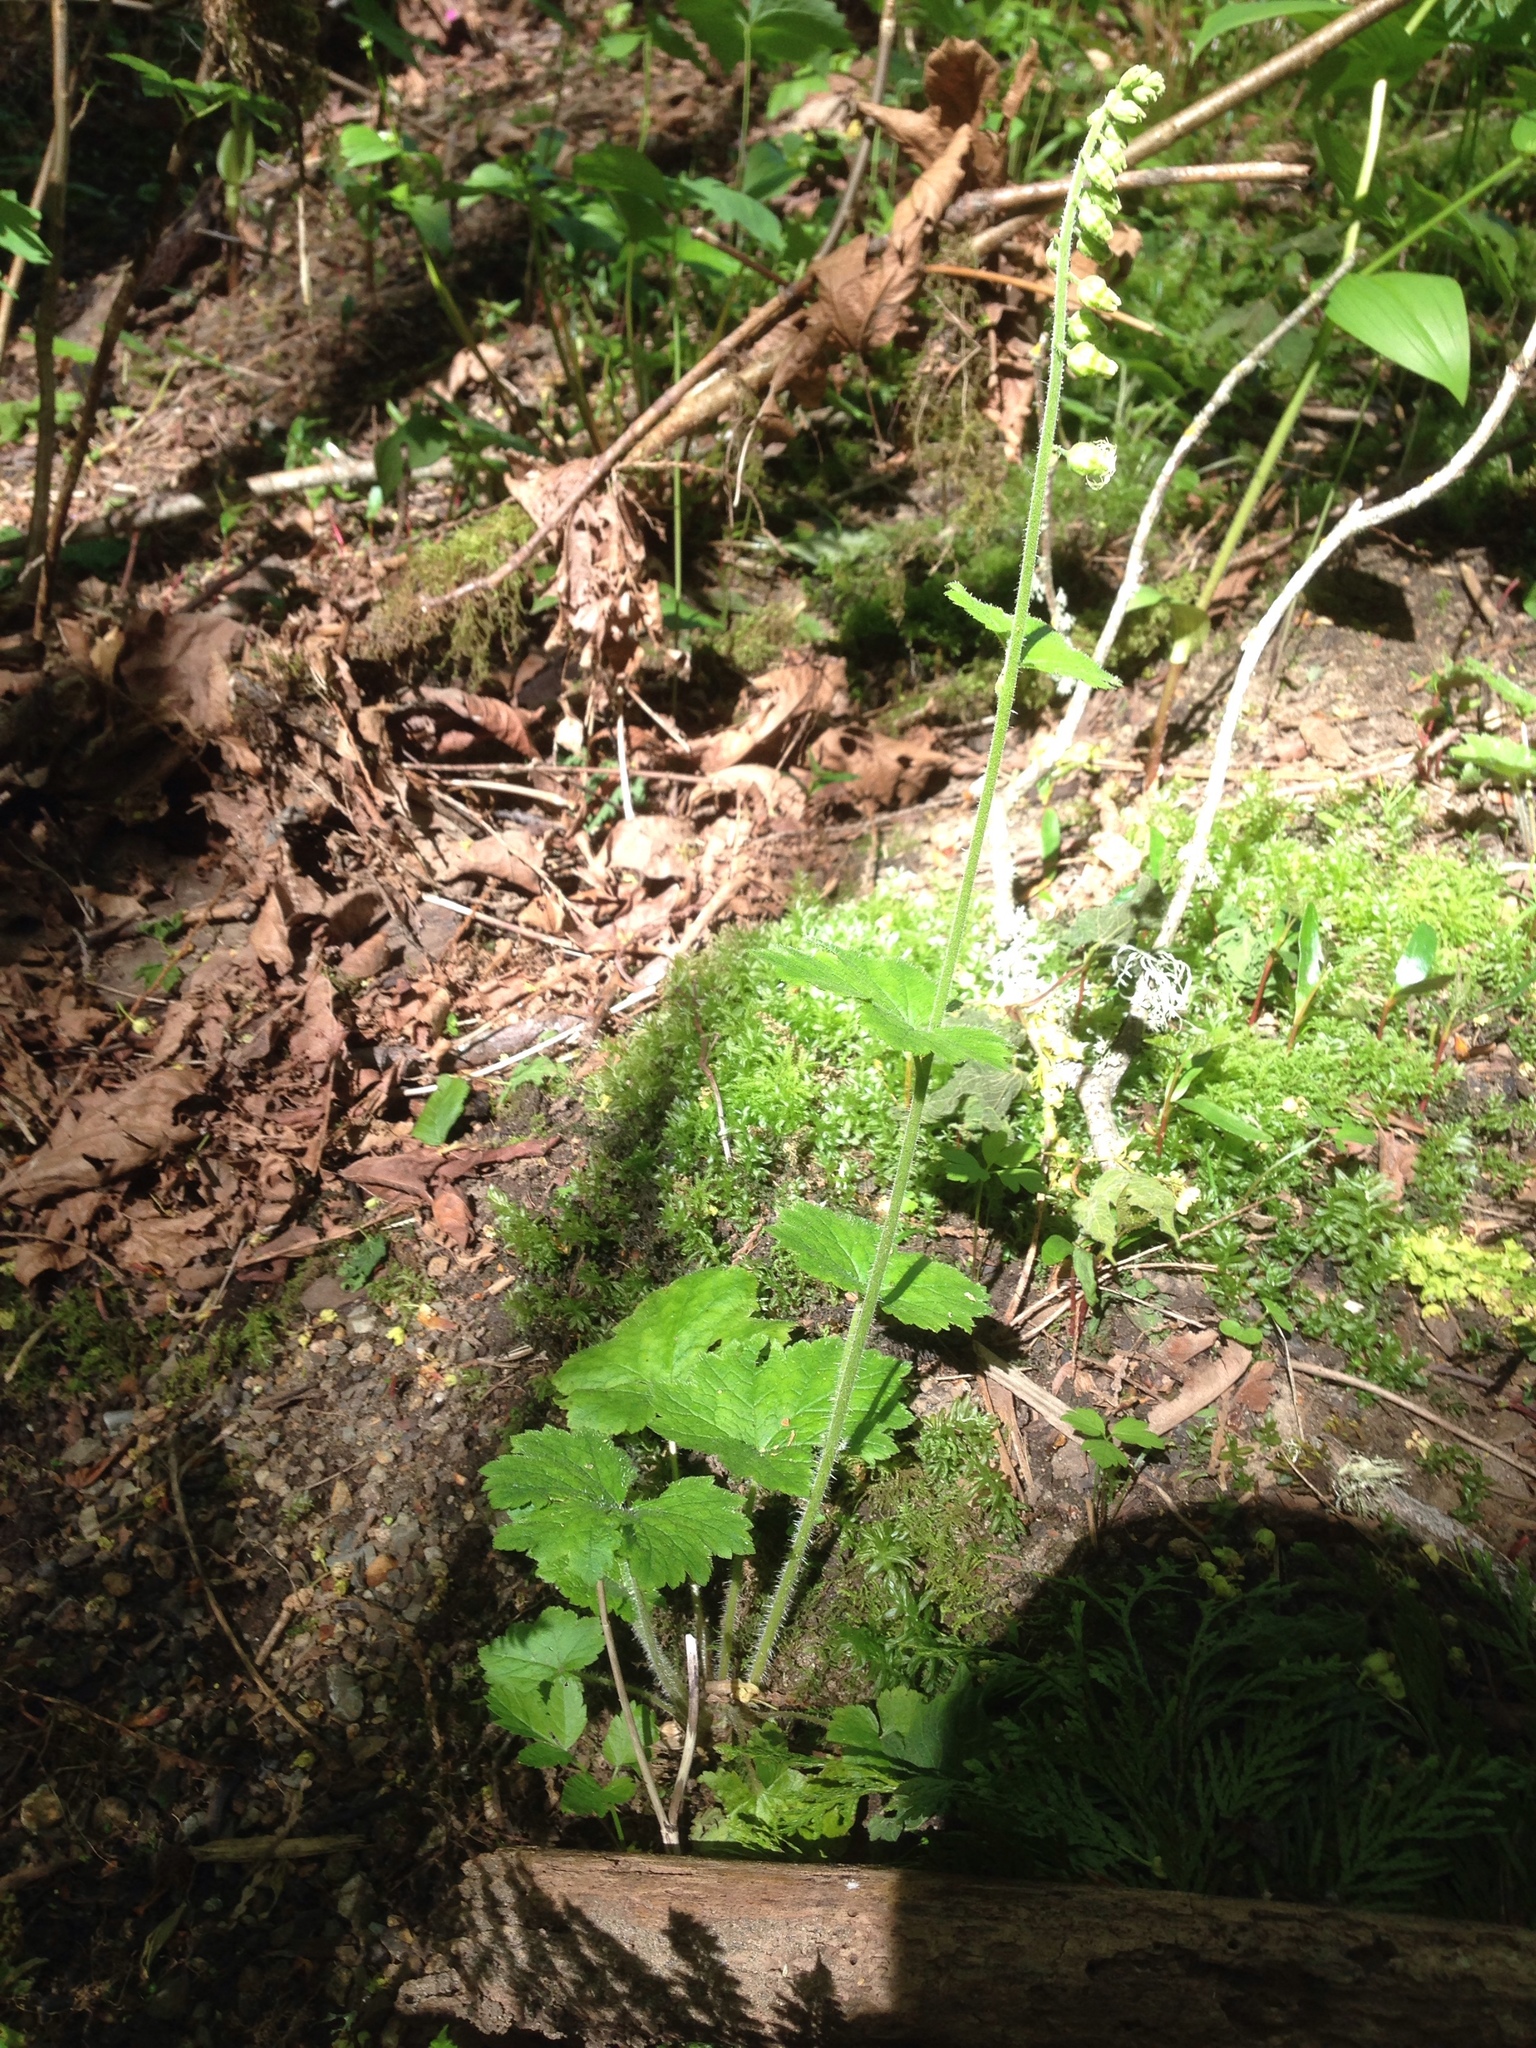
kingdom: Plantae
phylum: Tracheophyta
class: Magnoliopsida
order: Saxifragales
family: Saxifragaceae
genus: Tellima
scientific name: Tellima grandiflora
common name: Fringecups
